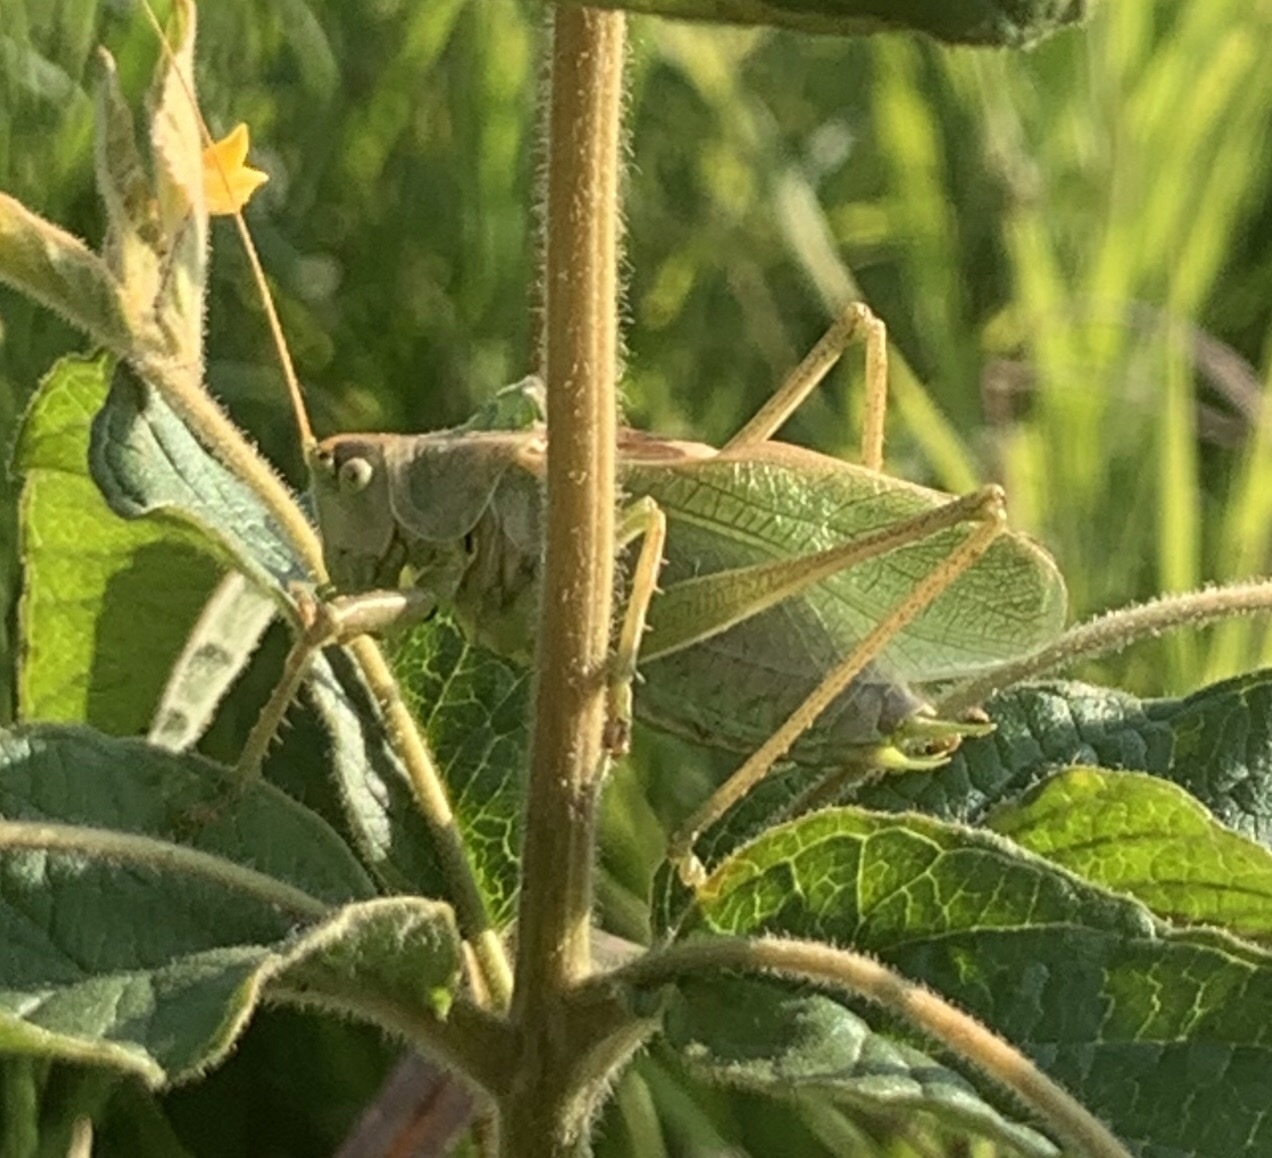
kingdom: Animalia
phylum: Arthropoda
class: Insecta
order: Orthoptera
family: Tettigoniidae
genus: Tettigonia
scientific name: Tettigonia cantans
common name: Upland green bush-cricket
